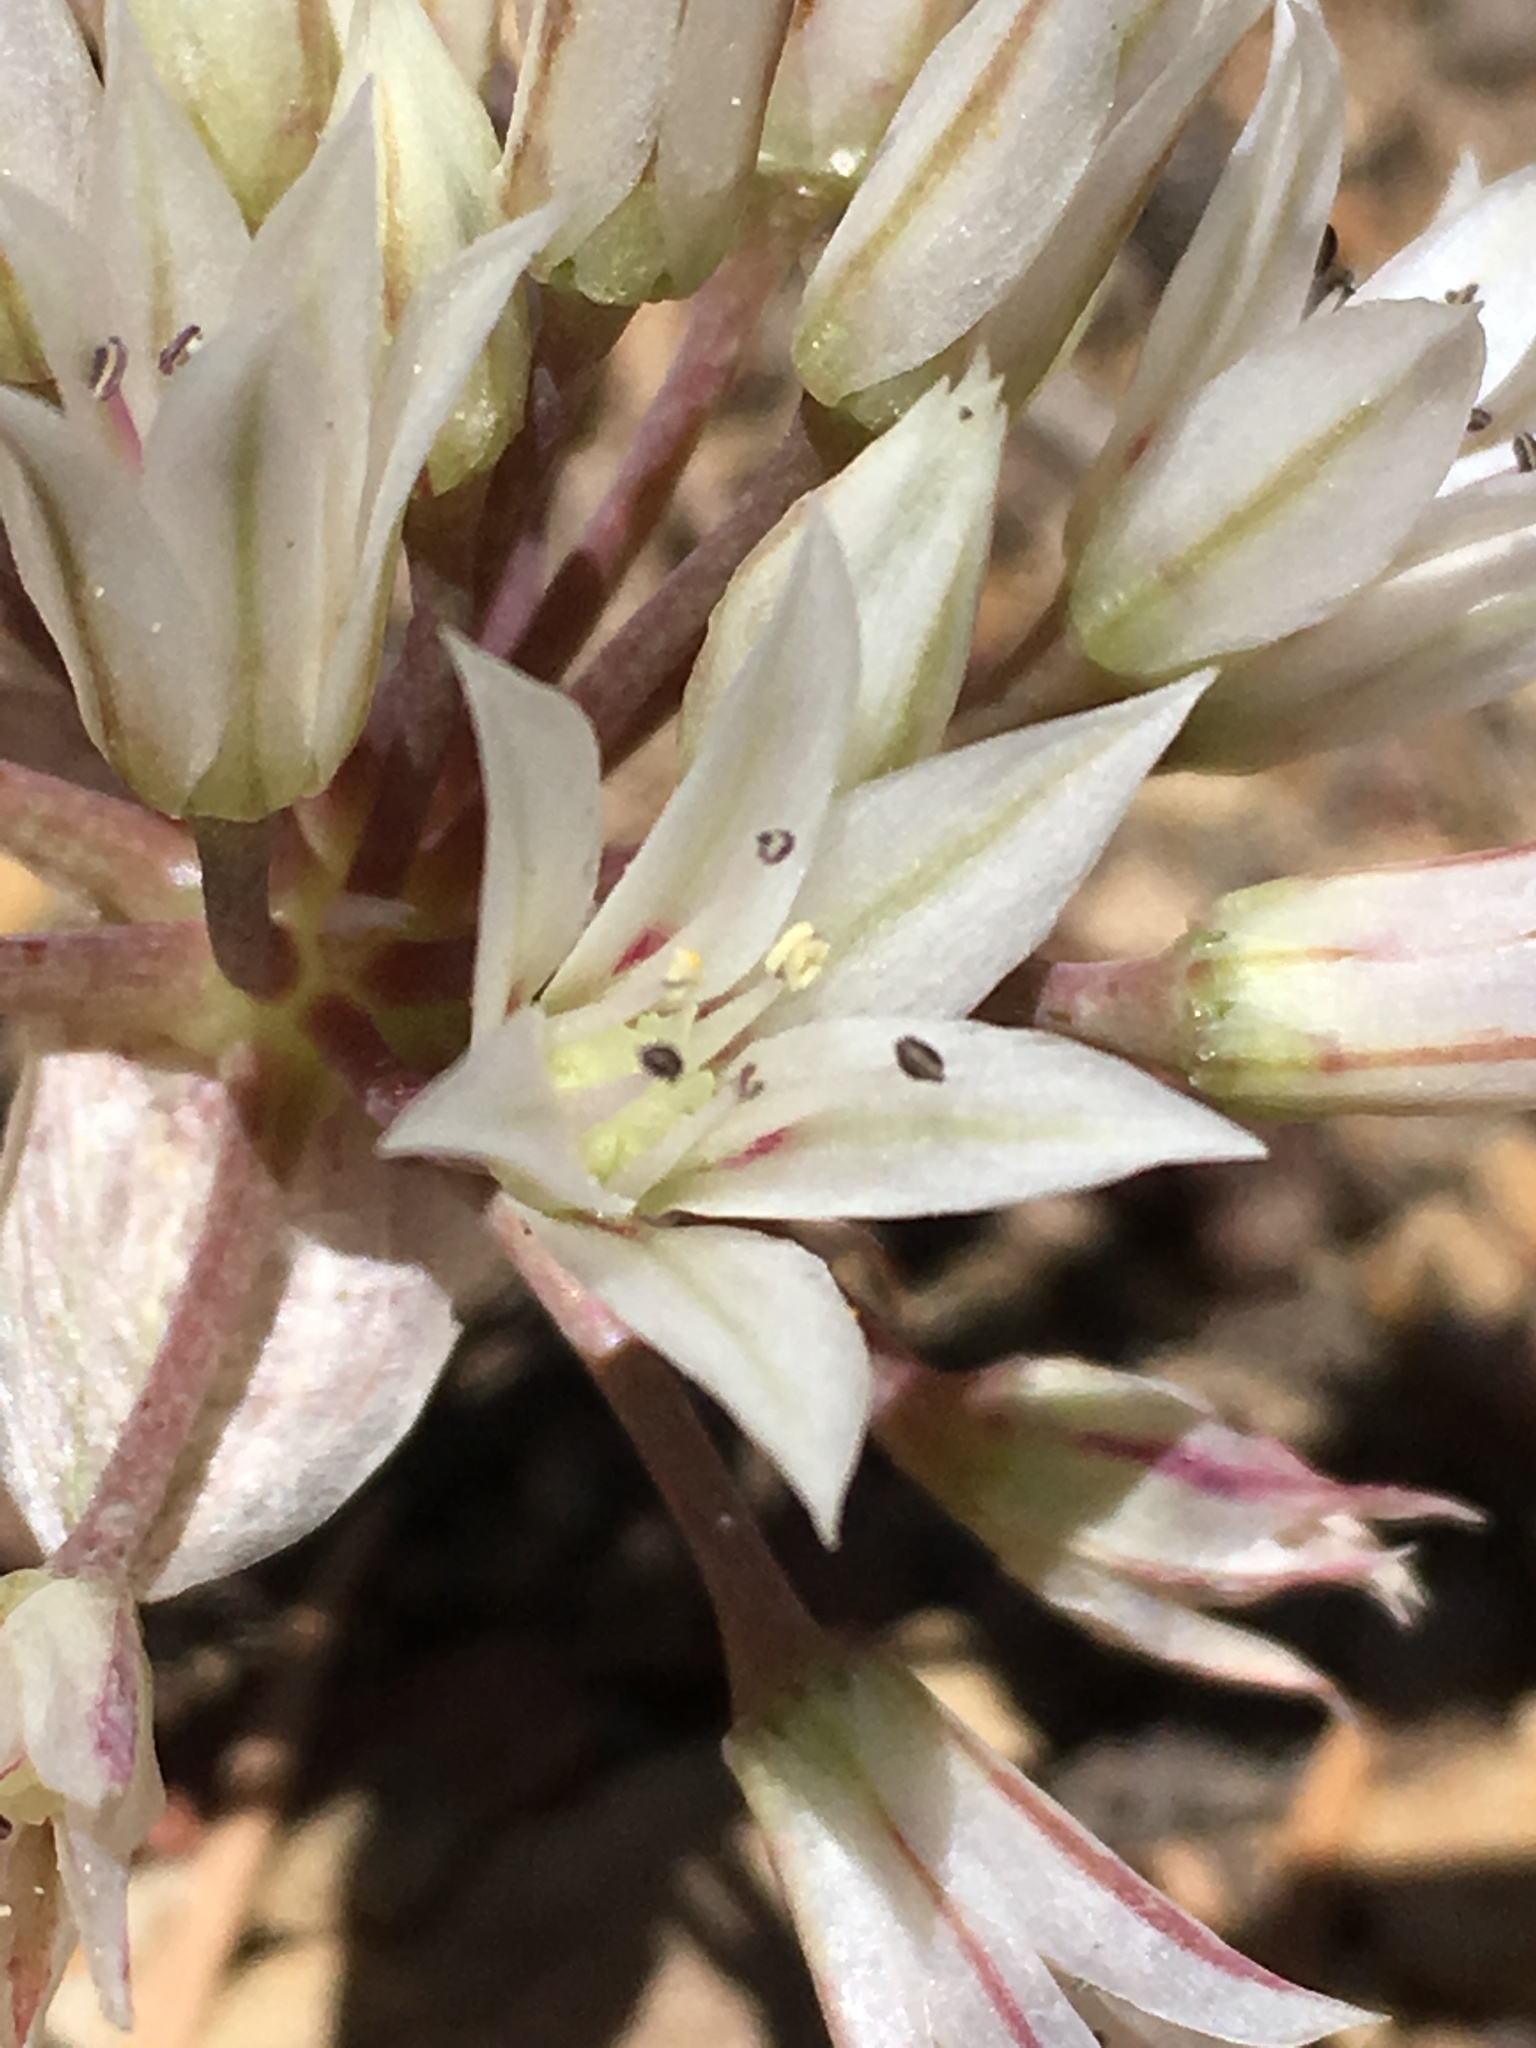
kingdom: Plantae
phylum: Tracheophyta
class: Liliopsida
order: Asparagales
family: Amaryllidaceae
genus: Allium
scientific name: Allium atrorubens
